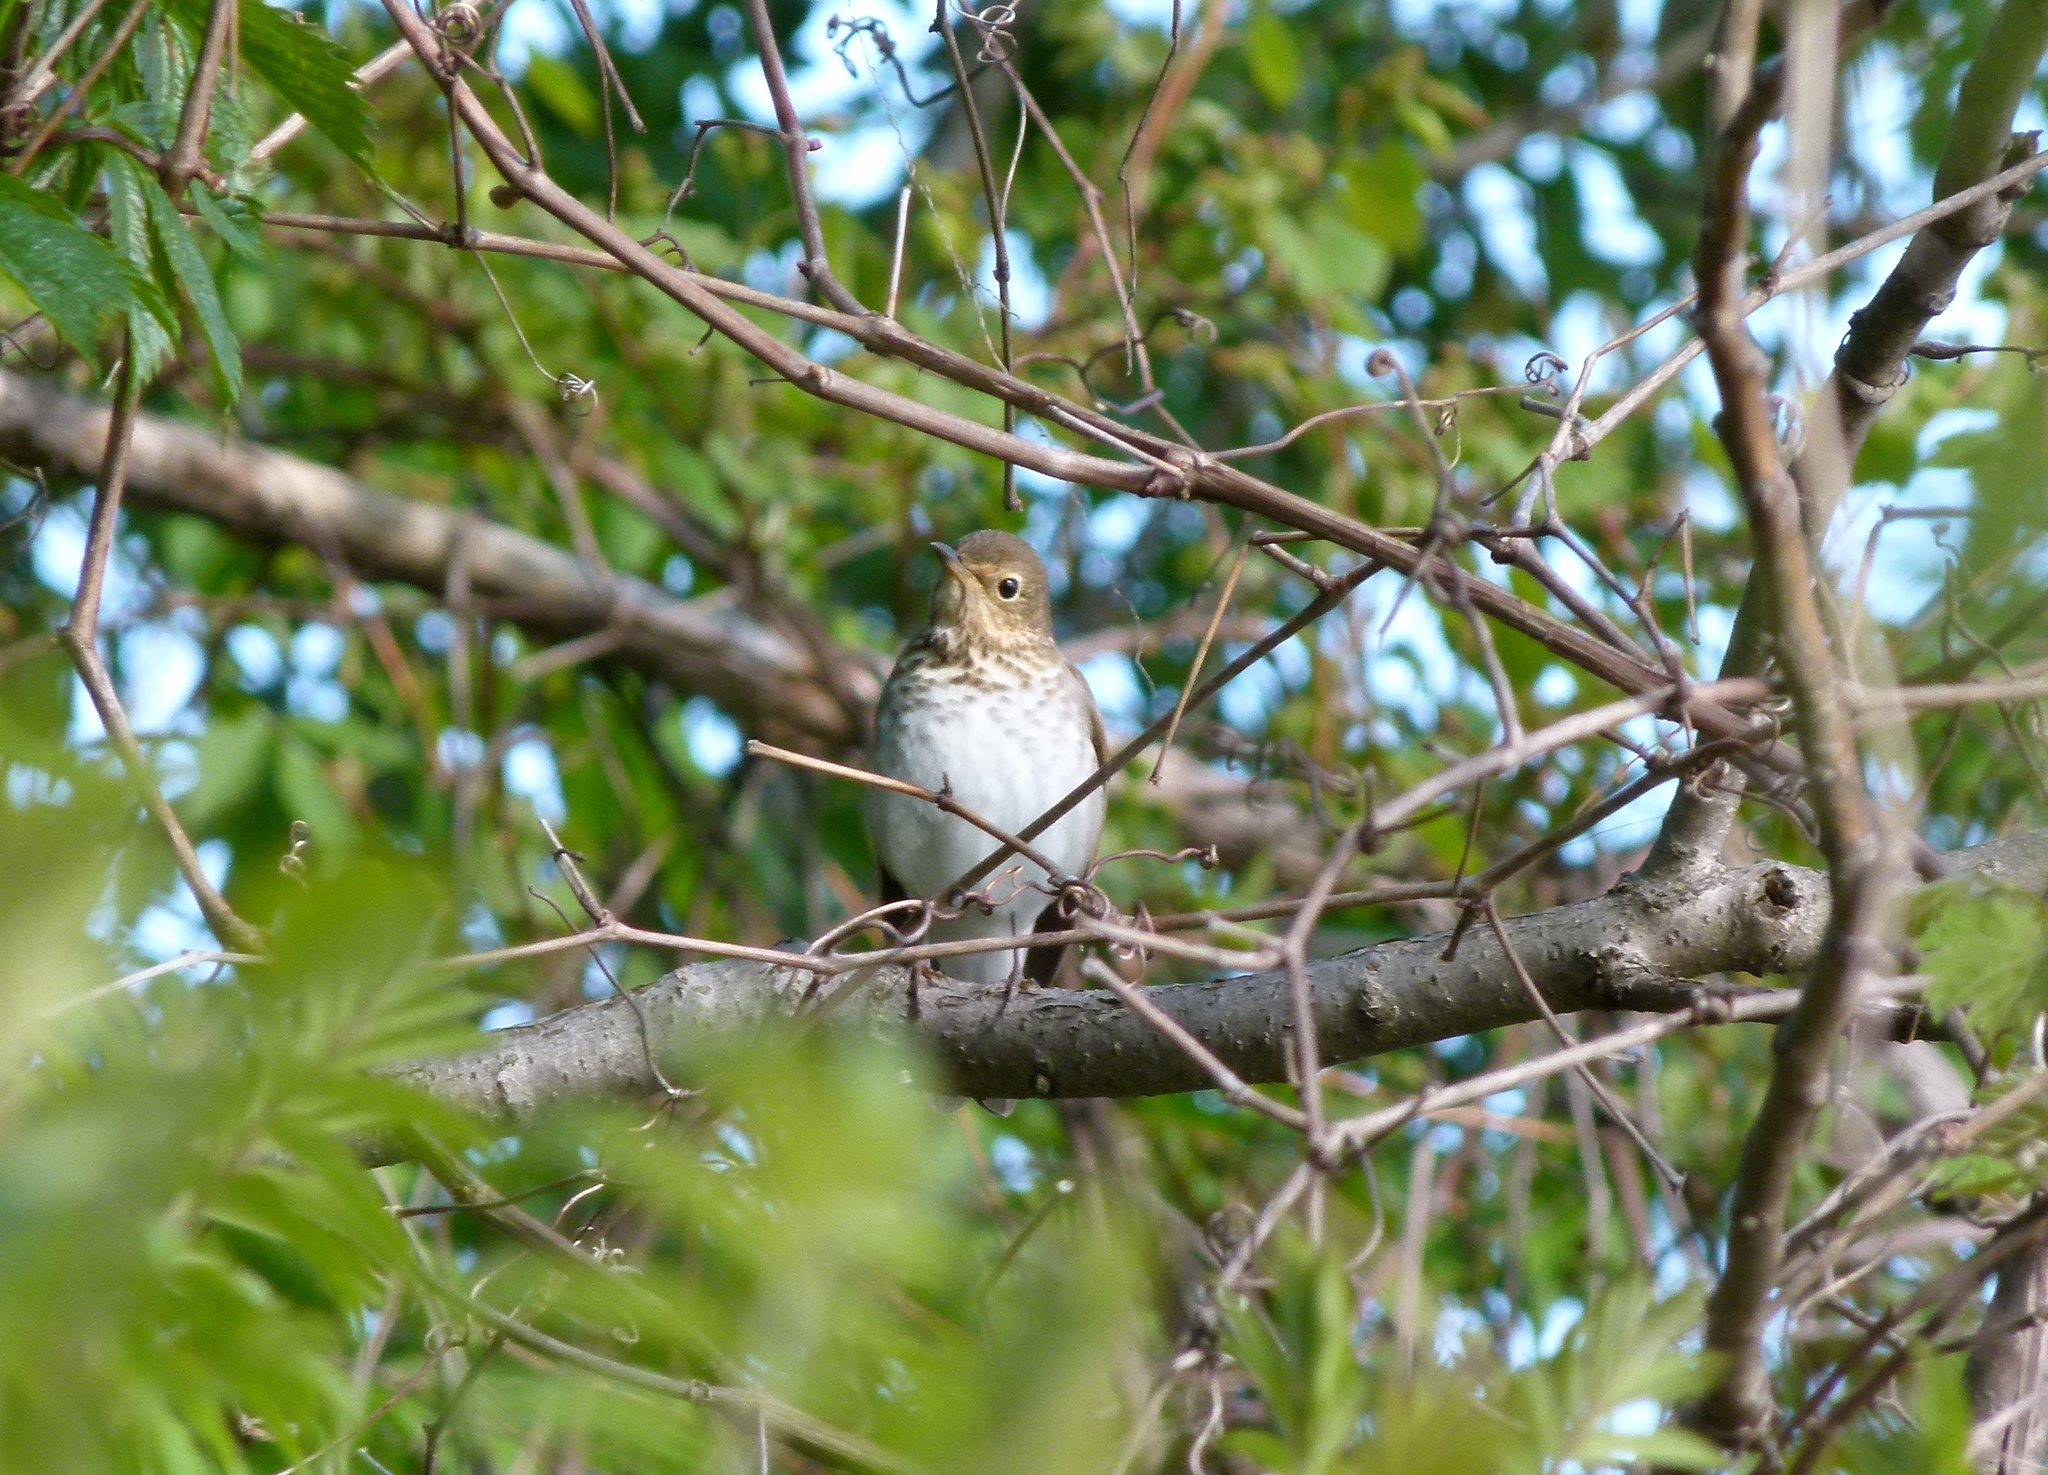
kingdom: Animalia
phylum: Chordata
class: Aves
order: Passeriformes
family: Turdidae
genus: Catharus
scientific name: Catharus ustulatus
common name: Swainson's thrush
